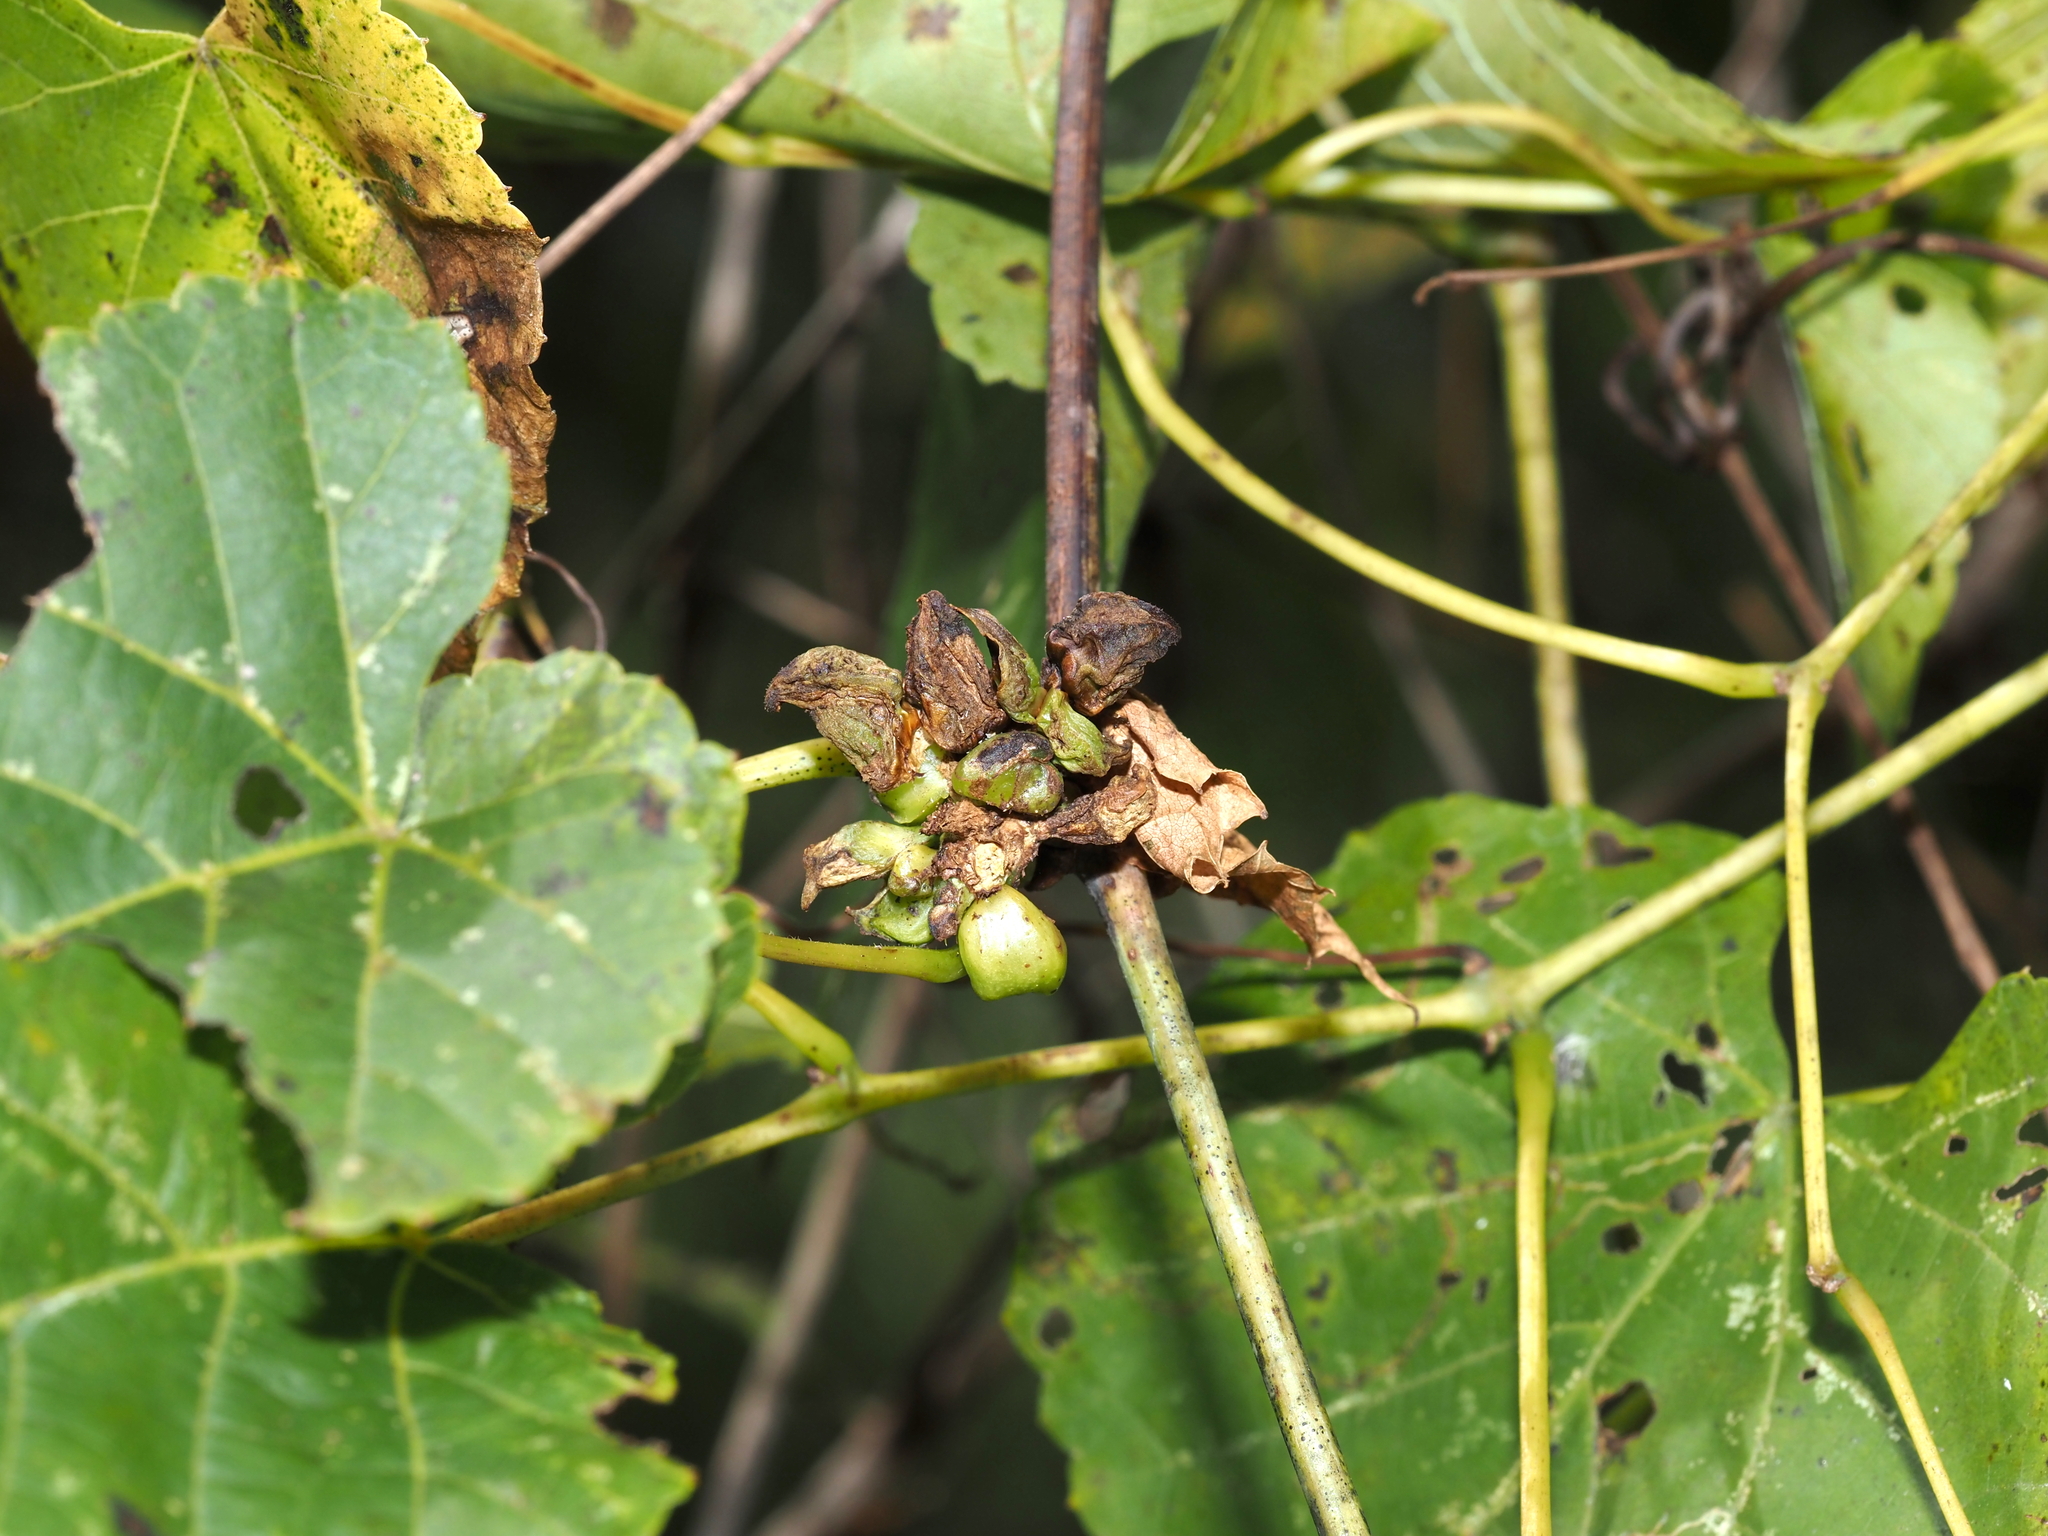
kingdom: Animalia
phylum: Arthropoda
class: Insecta
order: Diptera
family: Cecidomyiidae
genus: Ampelomyia
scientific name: Ampelomyia vitiscoryloides
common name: Grape filbert gall
